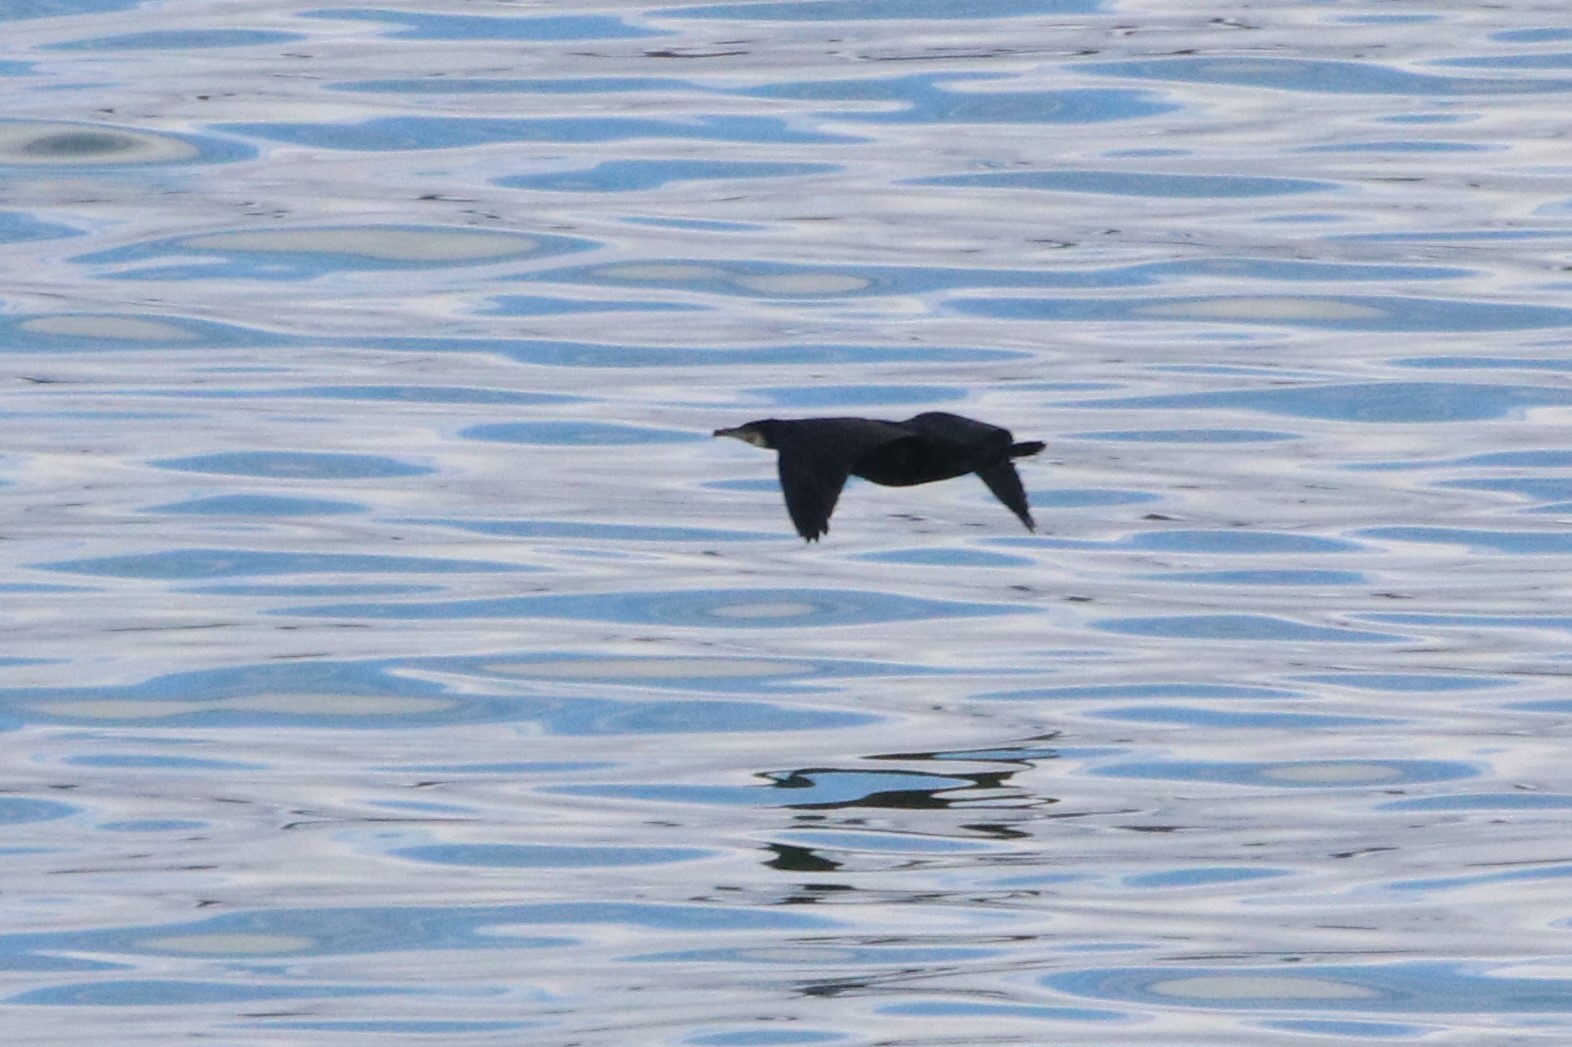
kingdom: Animalia
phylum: Chordata
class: Aves
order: Suliformes
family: Phalacrocoracidae
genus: Phalacrocorax
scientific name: Phalacrocorax carbo
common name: Great cormorant
